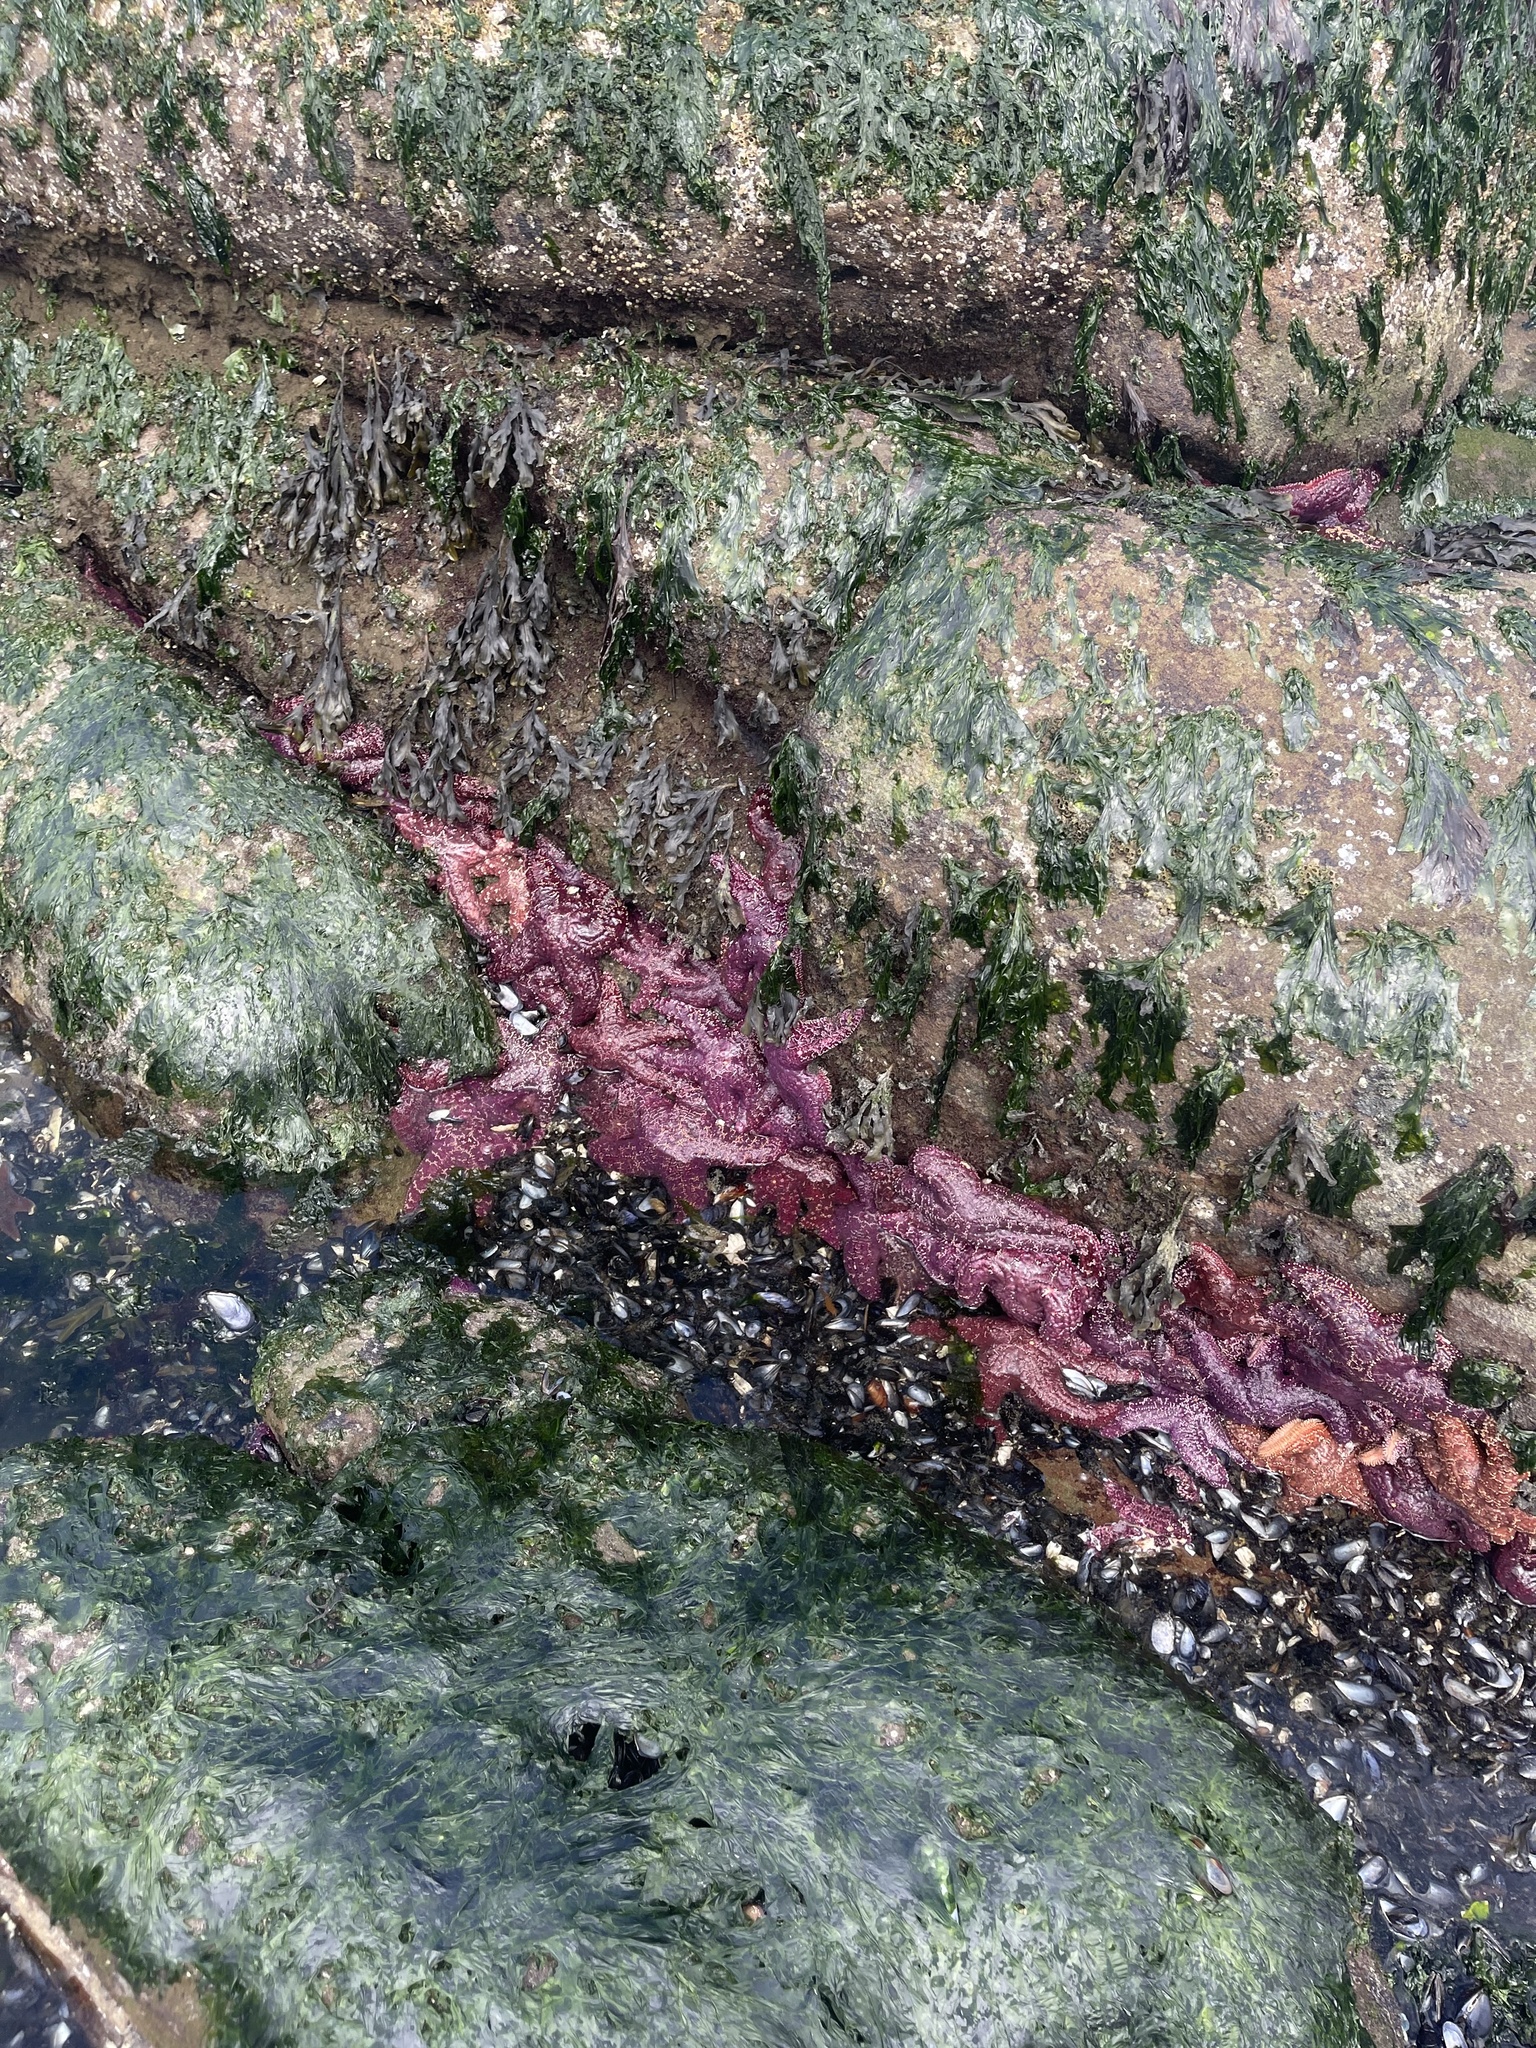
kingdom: Animalia
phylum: Echinodermata
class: Asteroidea
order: Forcipulatida
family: Asteriidae
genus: Pisaster
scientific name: Pisaster ochraceus
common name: Ochre stars
